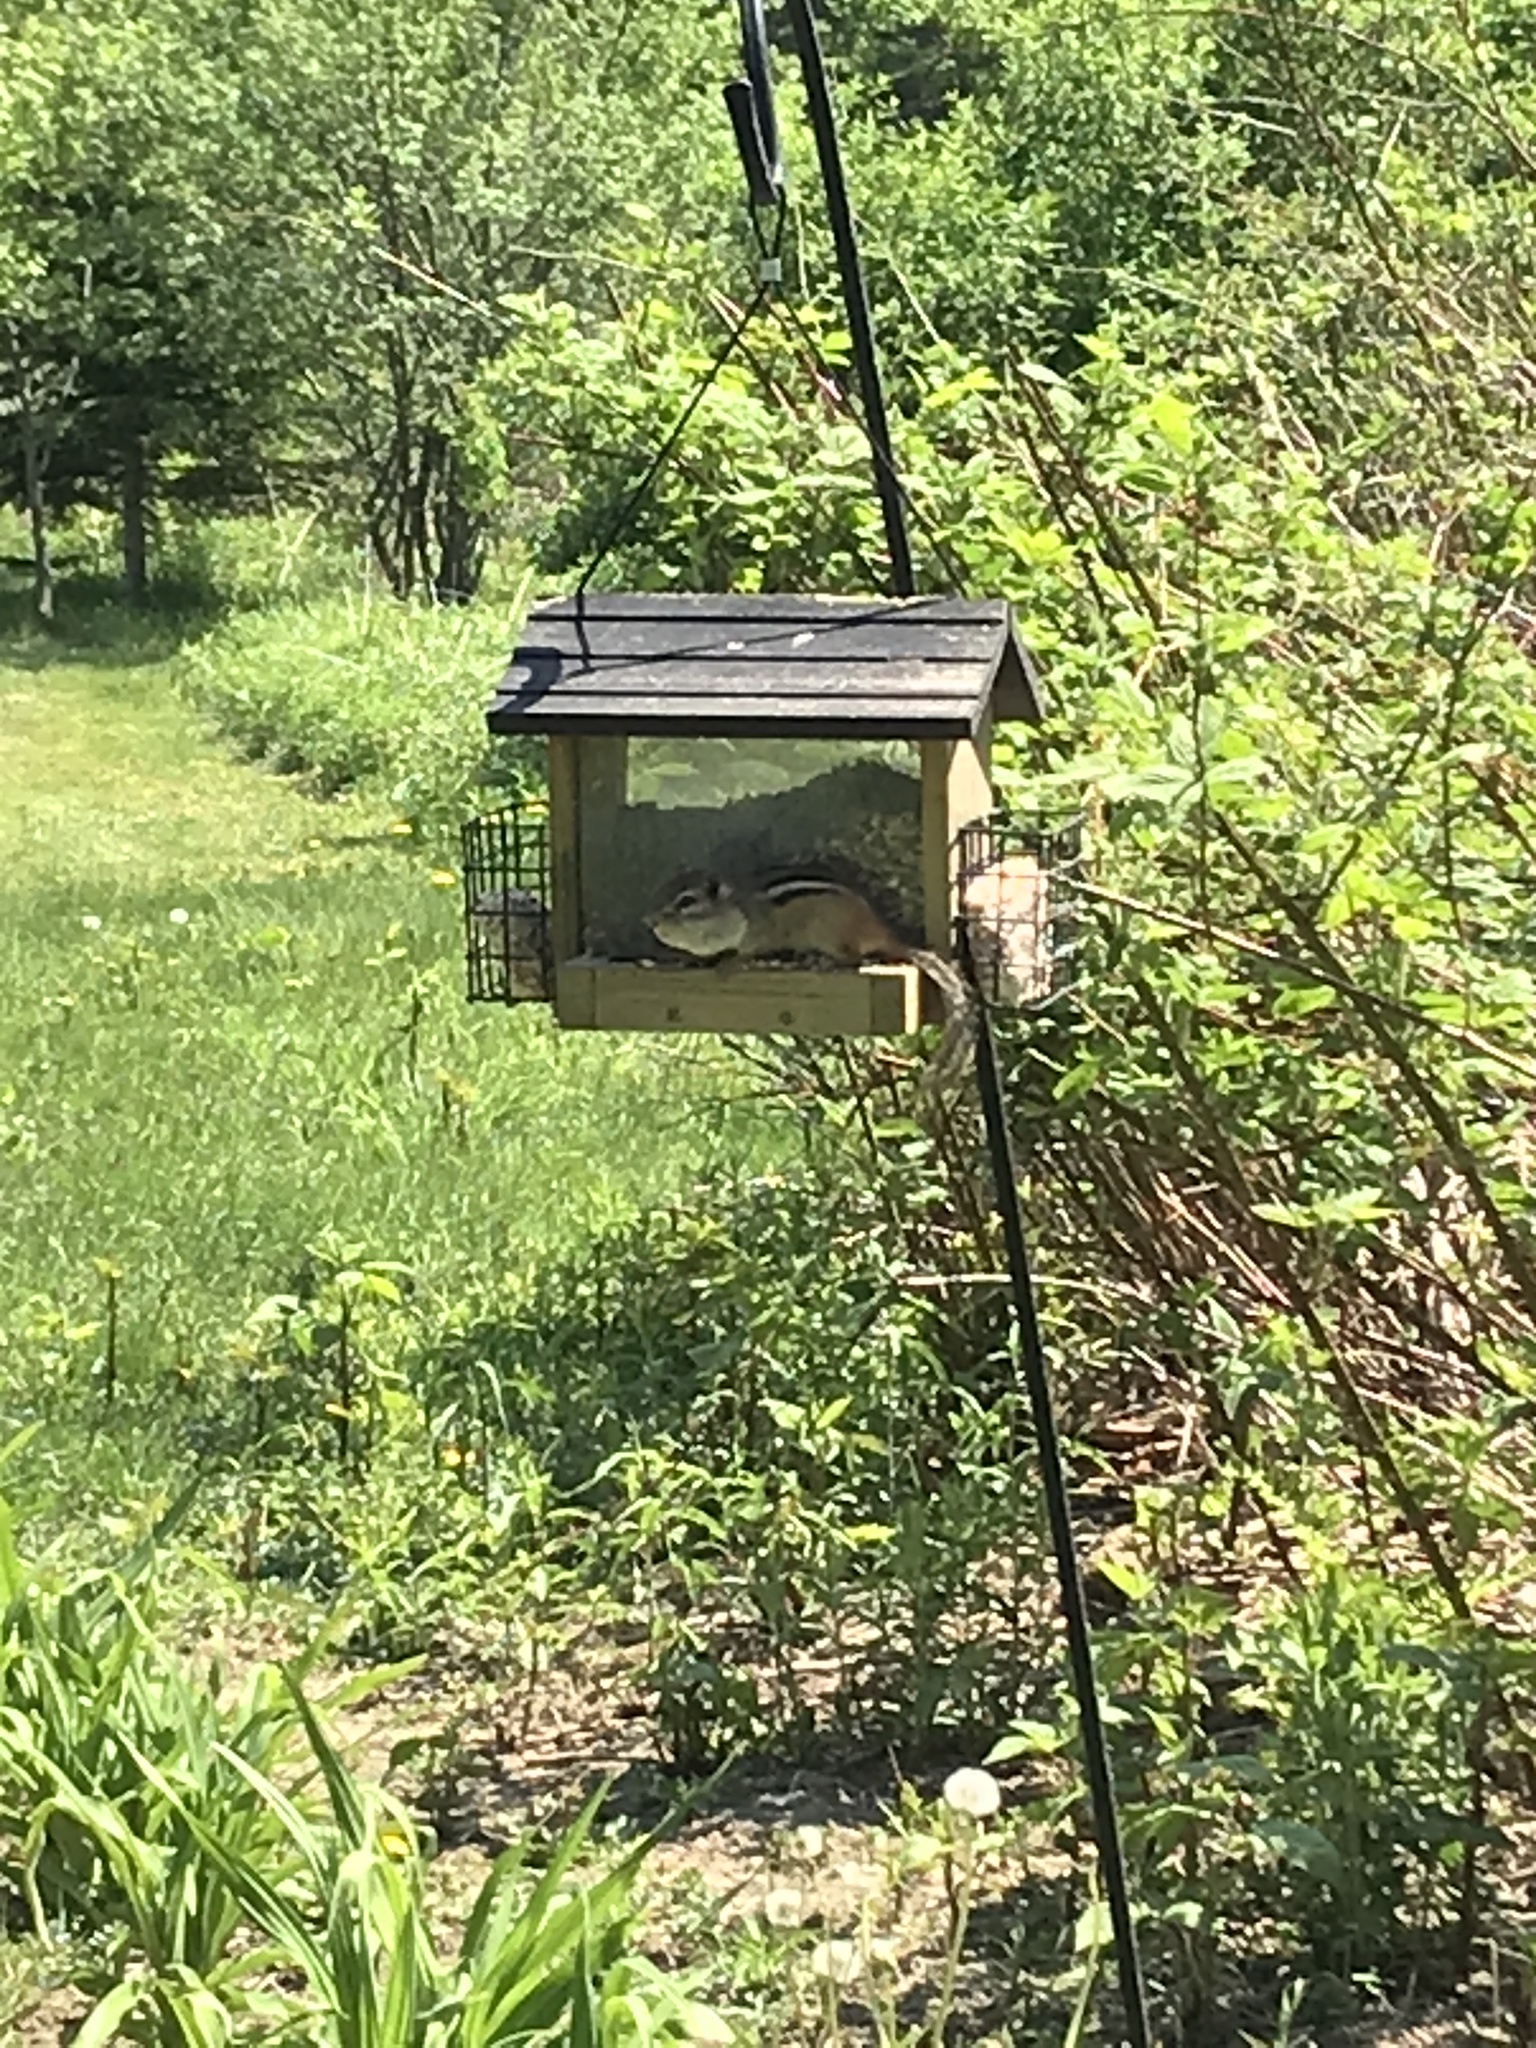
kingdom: Animalia
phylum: Chordata
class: Mammalia
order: Rodentia
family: Sciuridae
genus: Tamias
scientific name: Tamias striatus
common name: Eastern chipmunk
